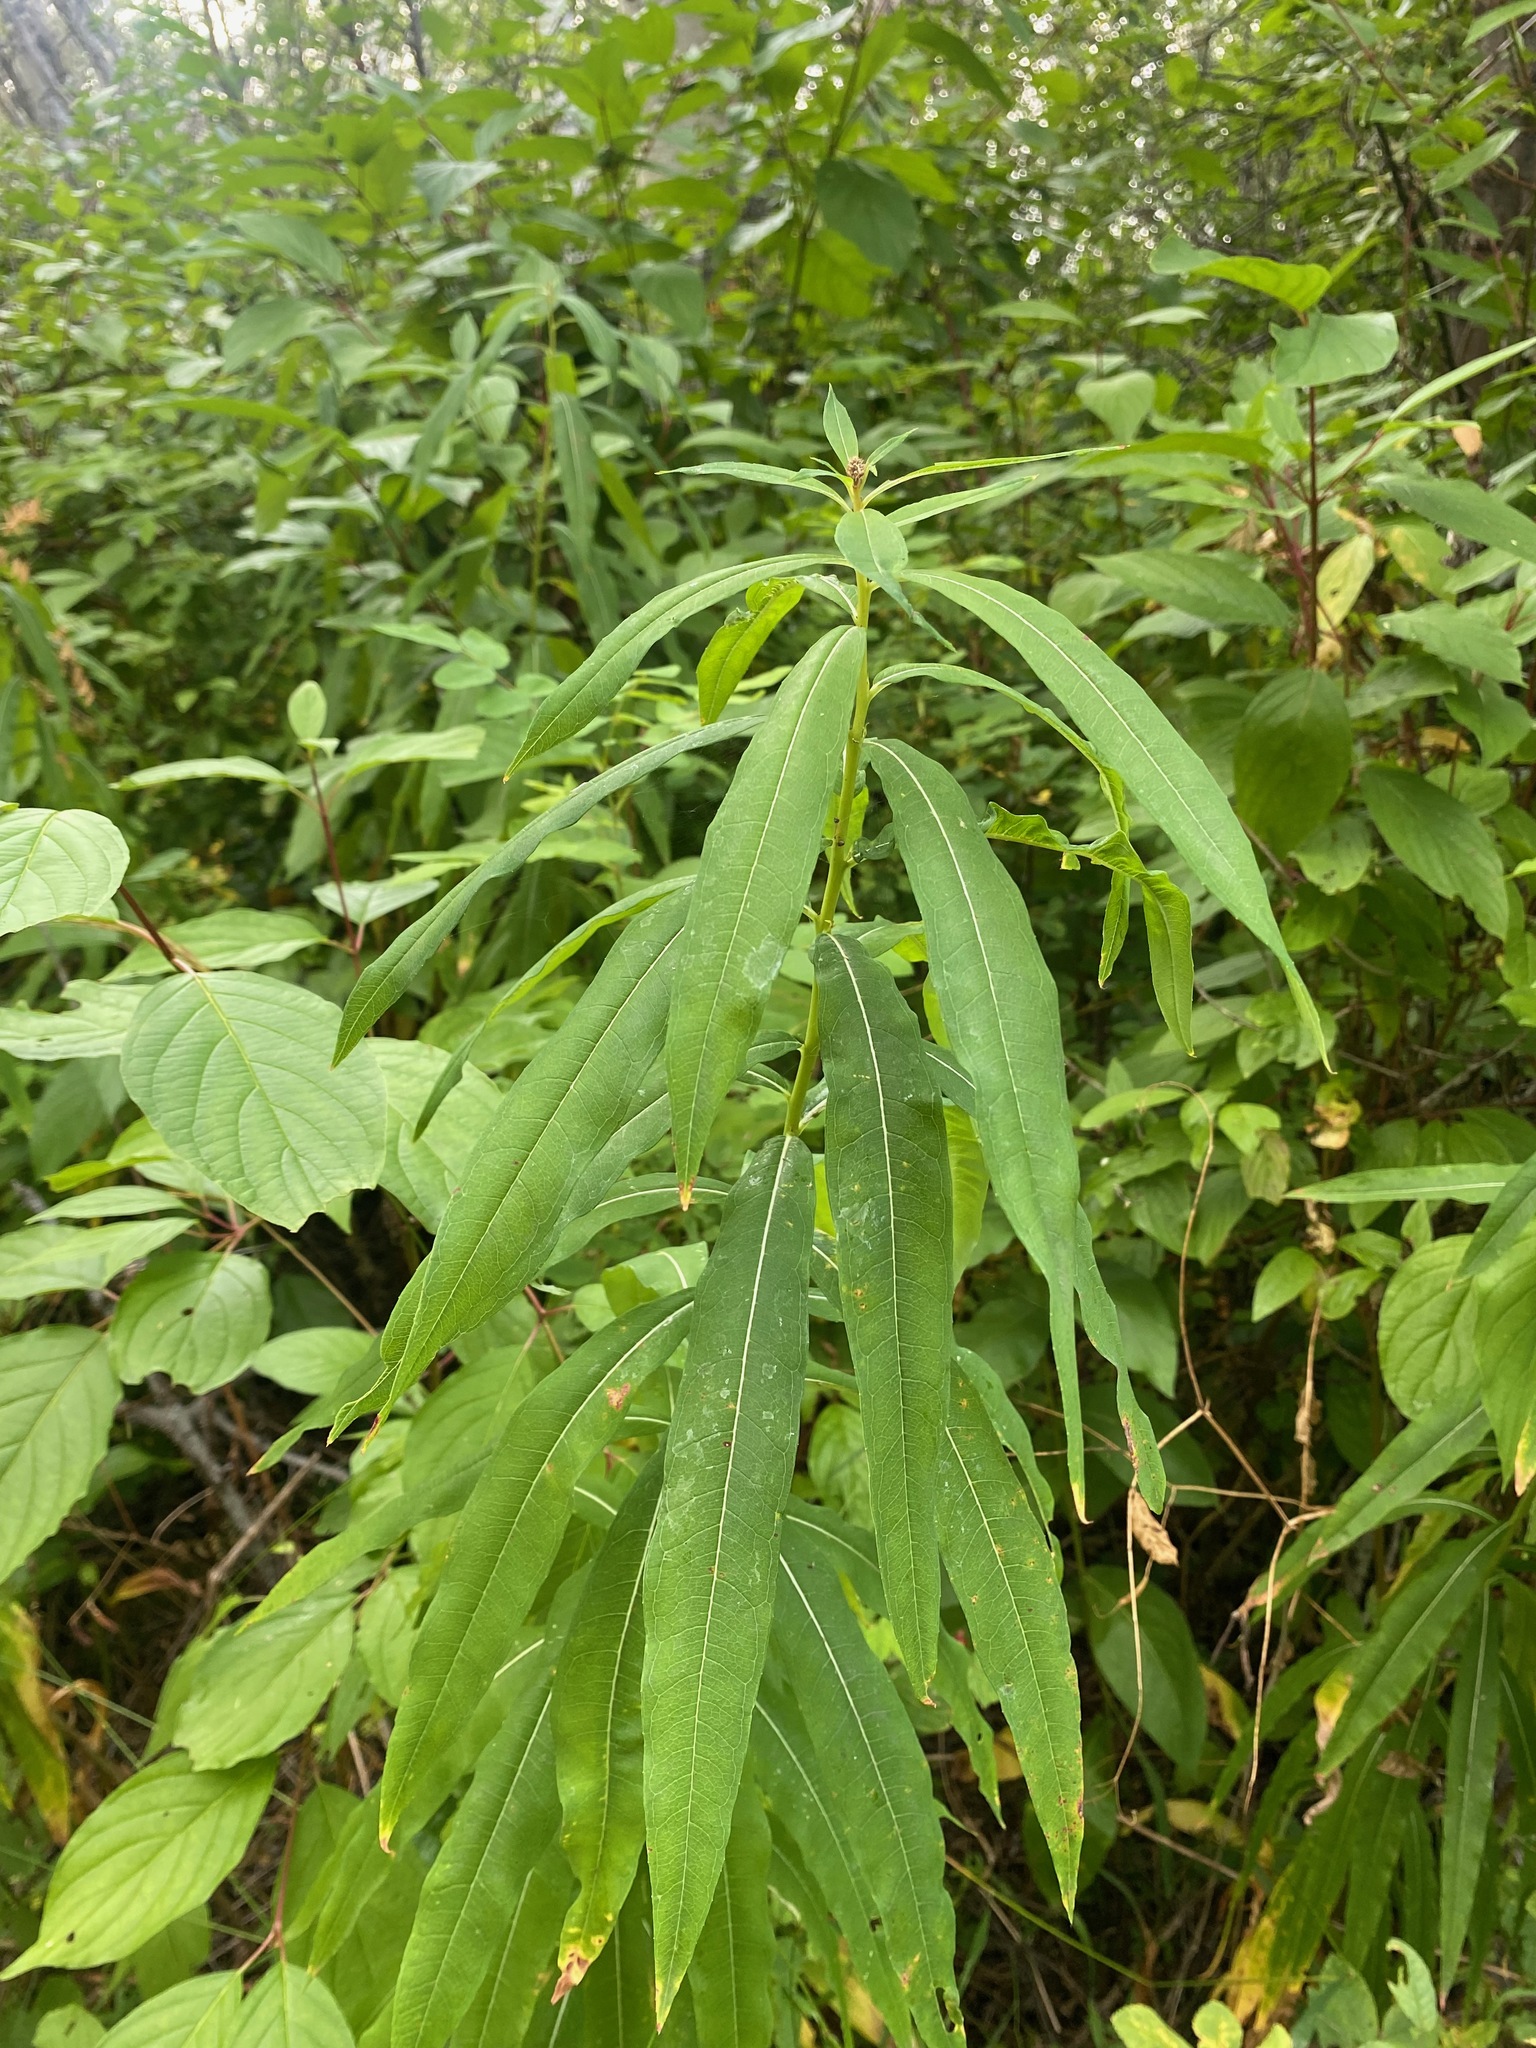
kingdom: Plantae
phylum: Tracheophyta
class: Magnoliopsida
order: Myrtales
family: Onagraceae
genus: Chamaenerion
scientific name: Chamaenerion angustifolium
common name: Fireweed
